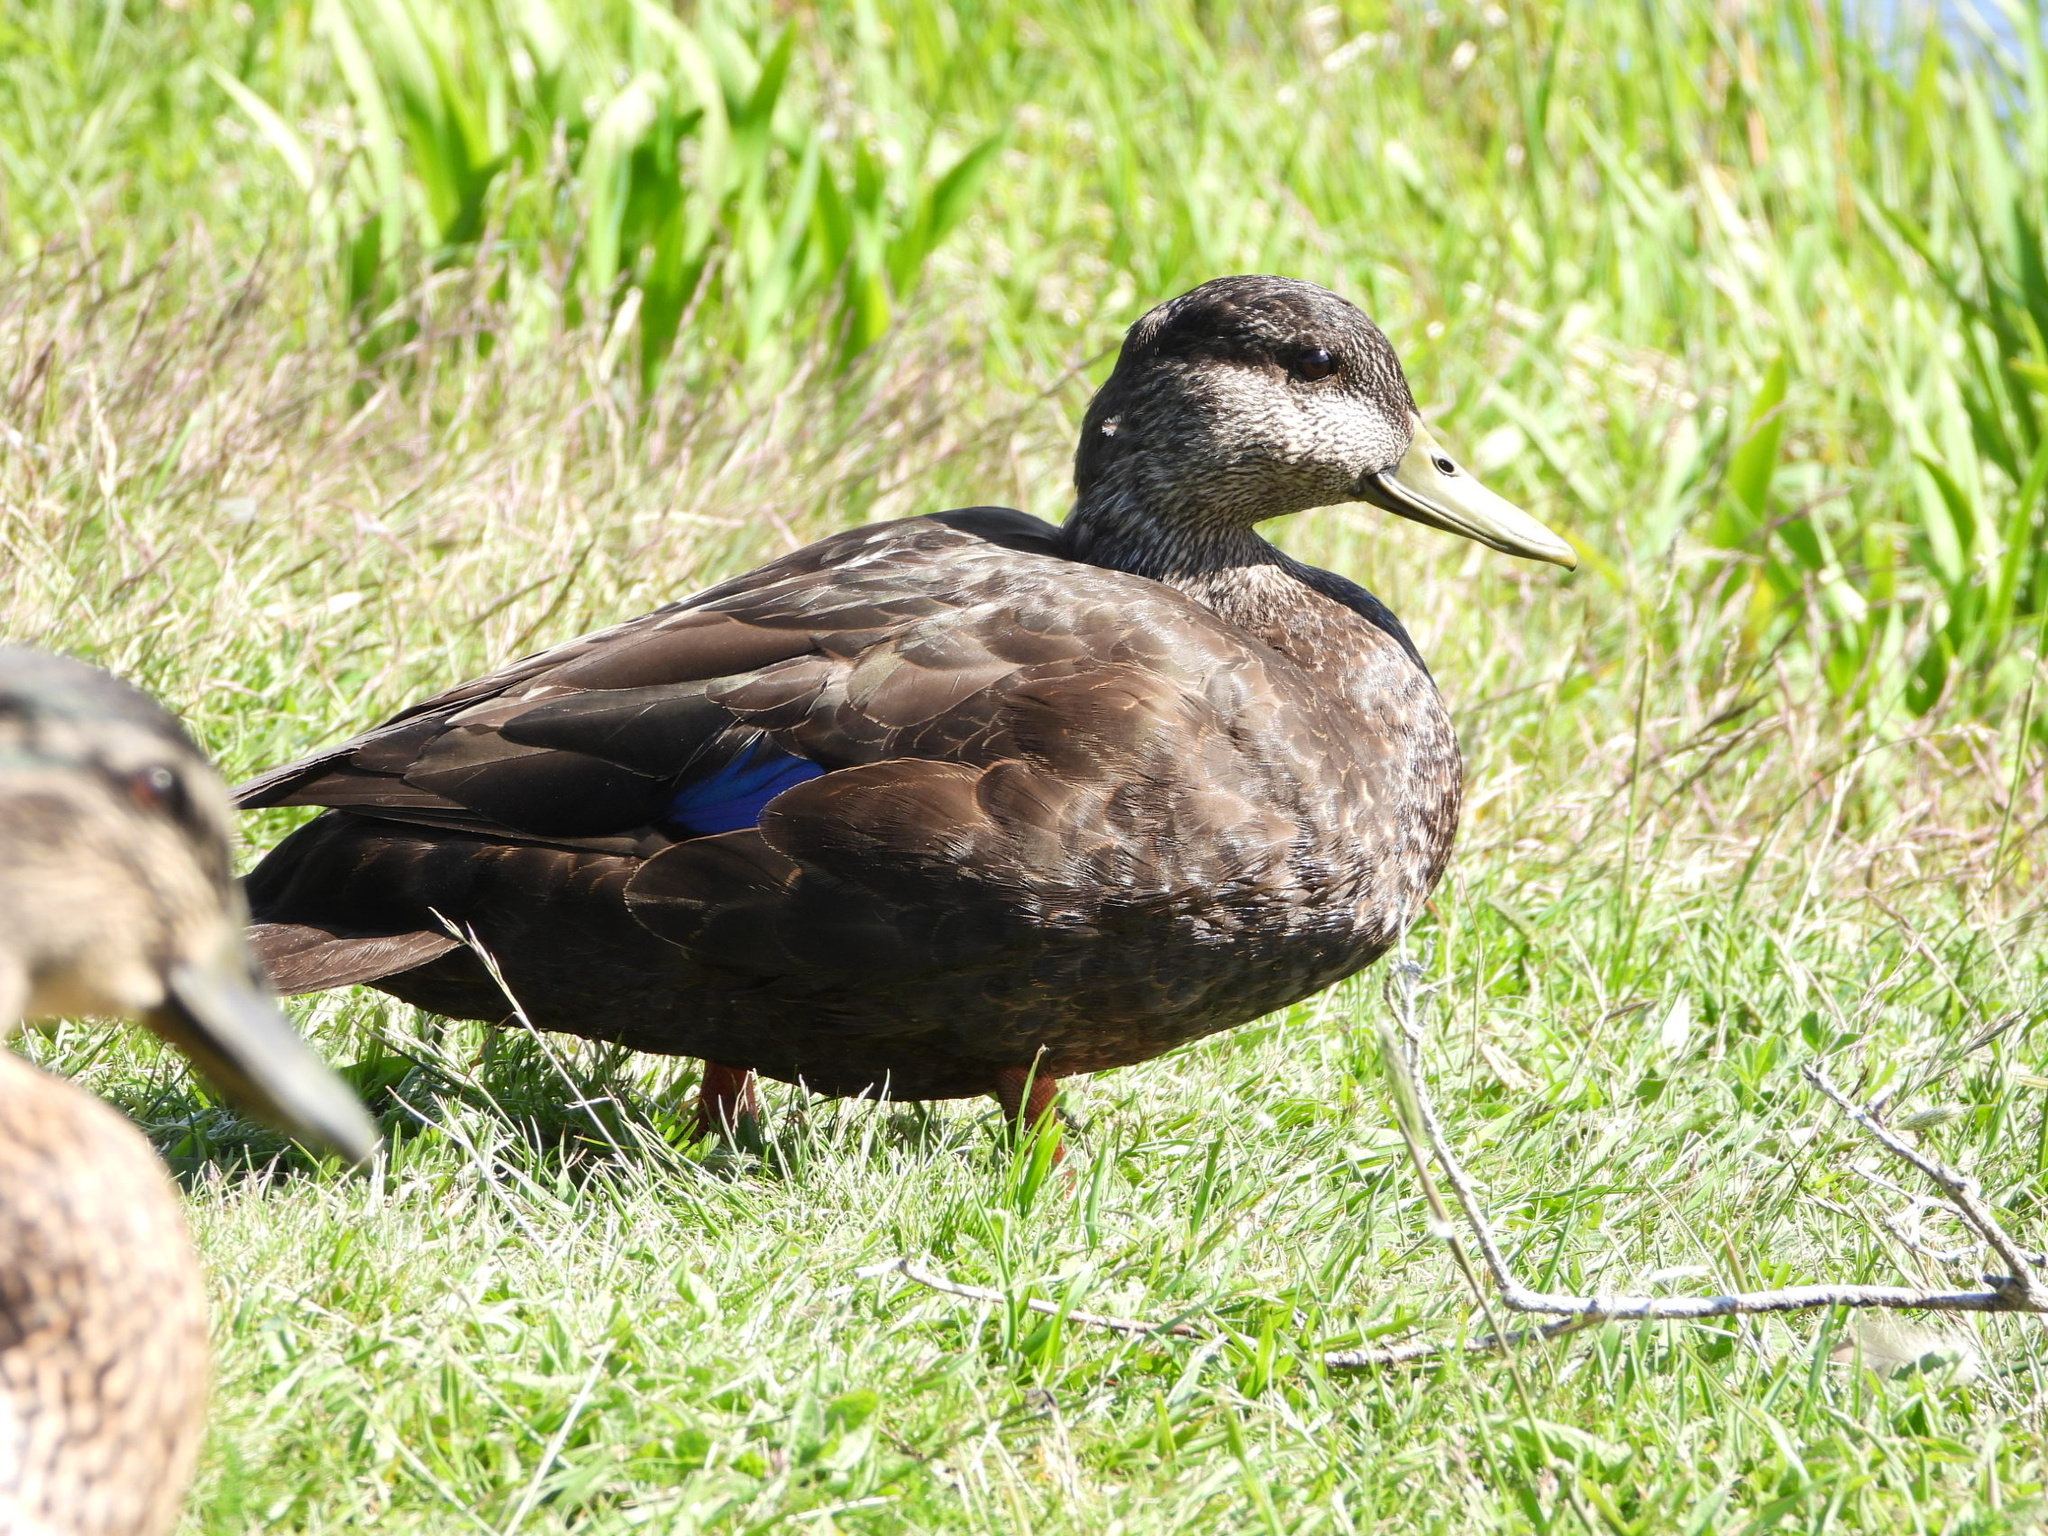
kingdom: Animalia
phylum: Chordata
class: Aves
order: Anseriformes
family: Anatidae
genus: Anas
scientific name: Anas rubripes
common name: American black duck
